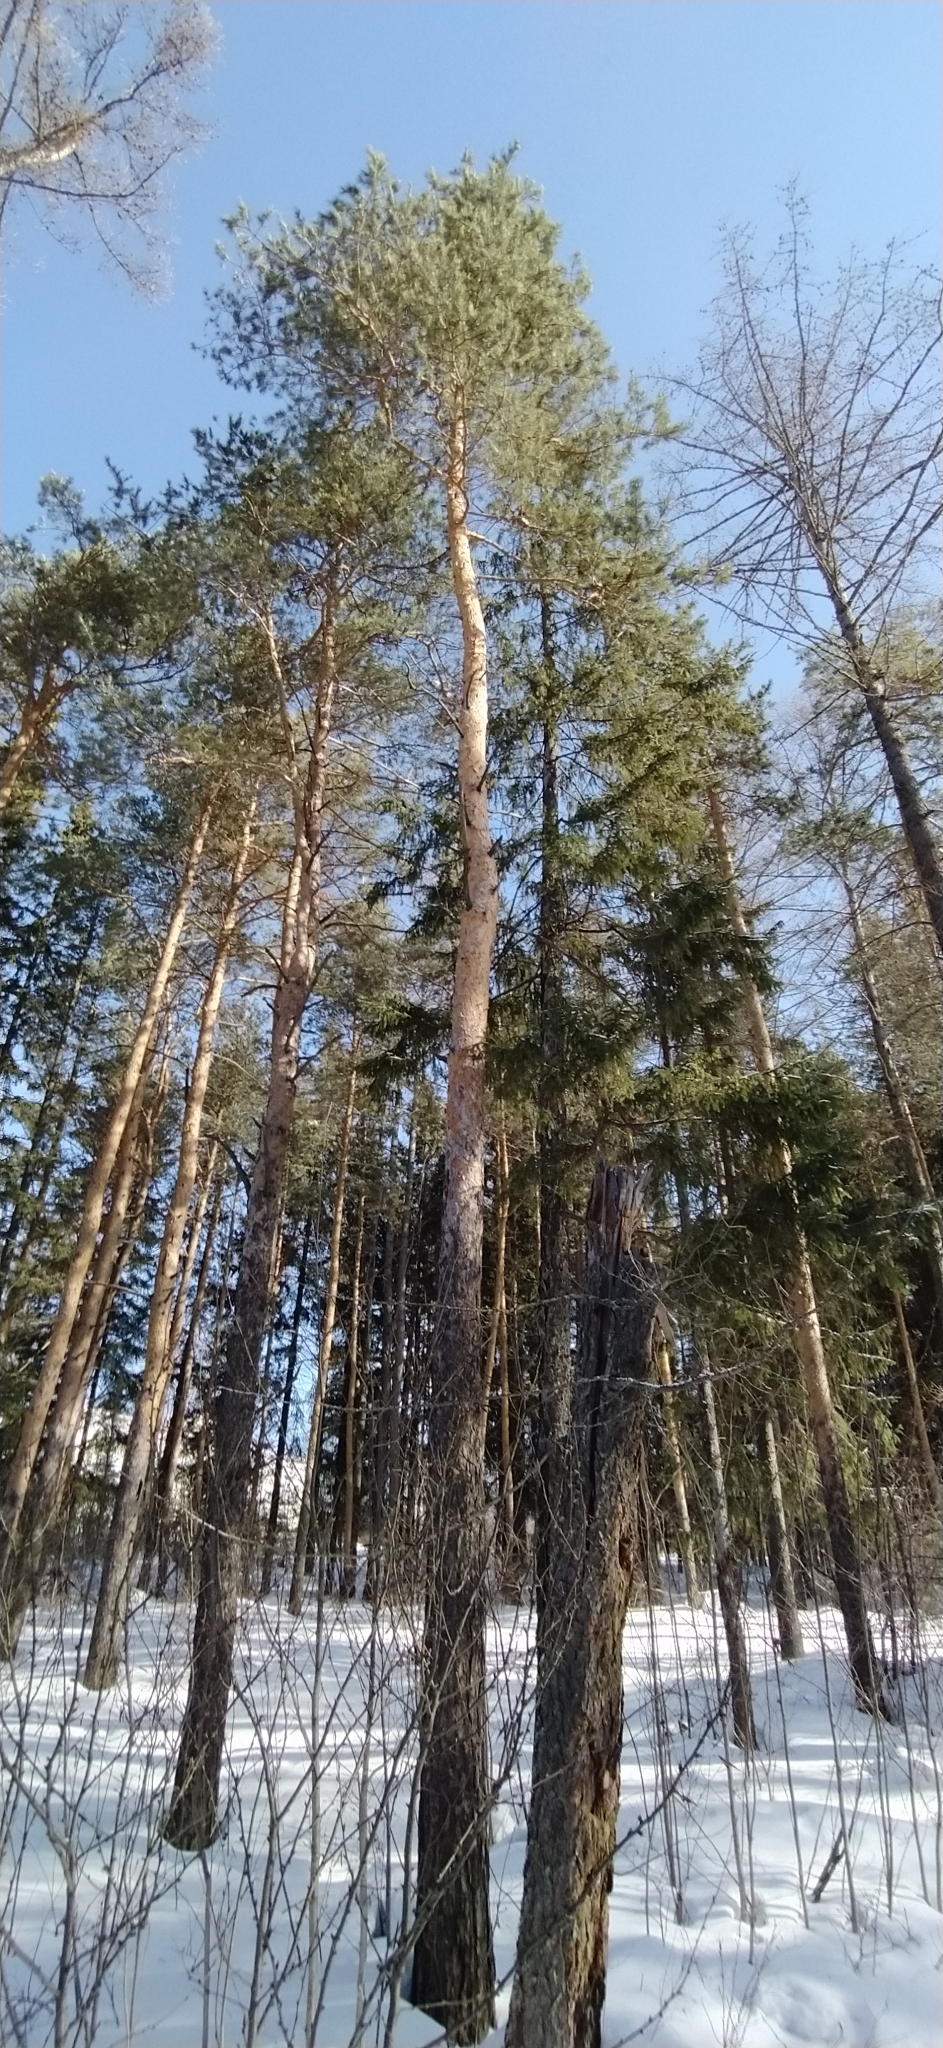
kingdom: Plantae
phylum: Tracheophyta
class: Pinopsida
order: Pinales
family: Pinaceae
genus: Pinus
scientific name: Pinus sylvestris
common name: Scots pine
